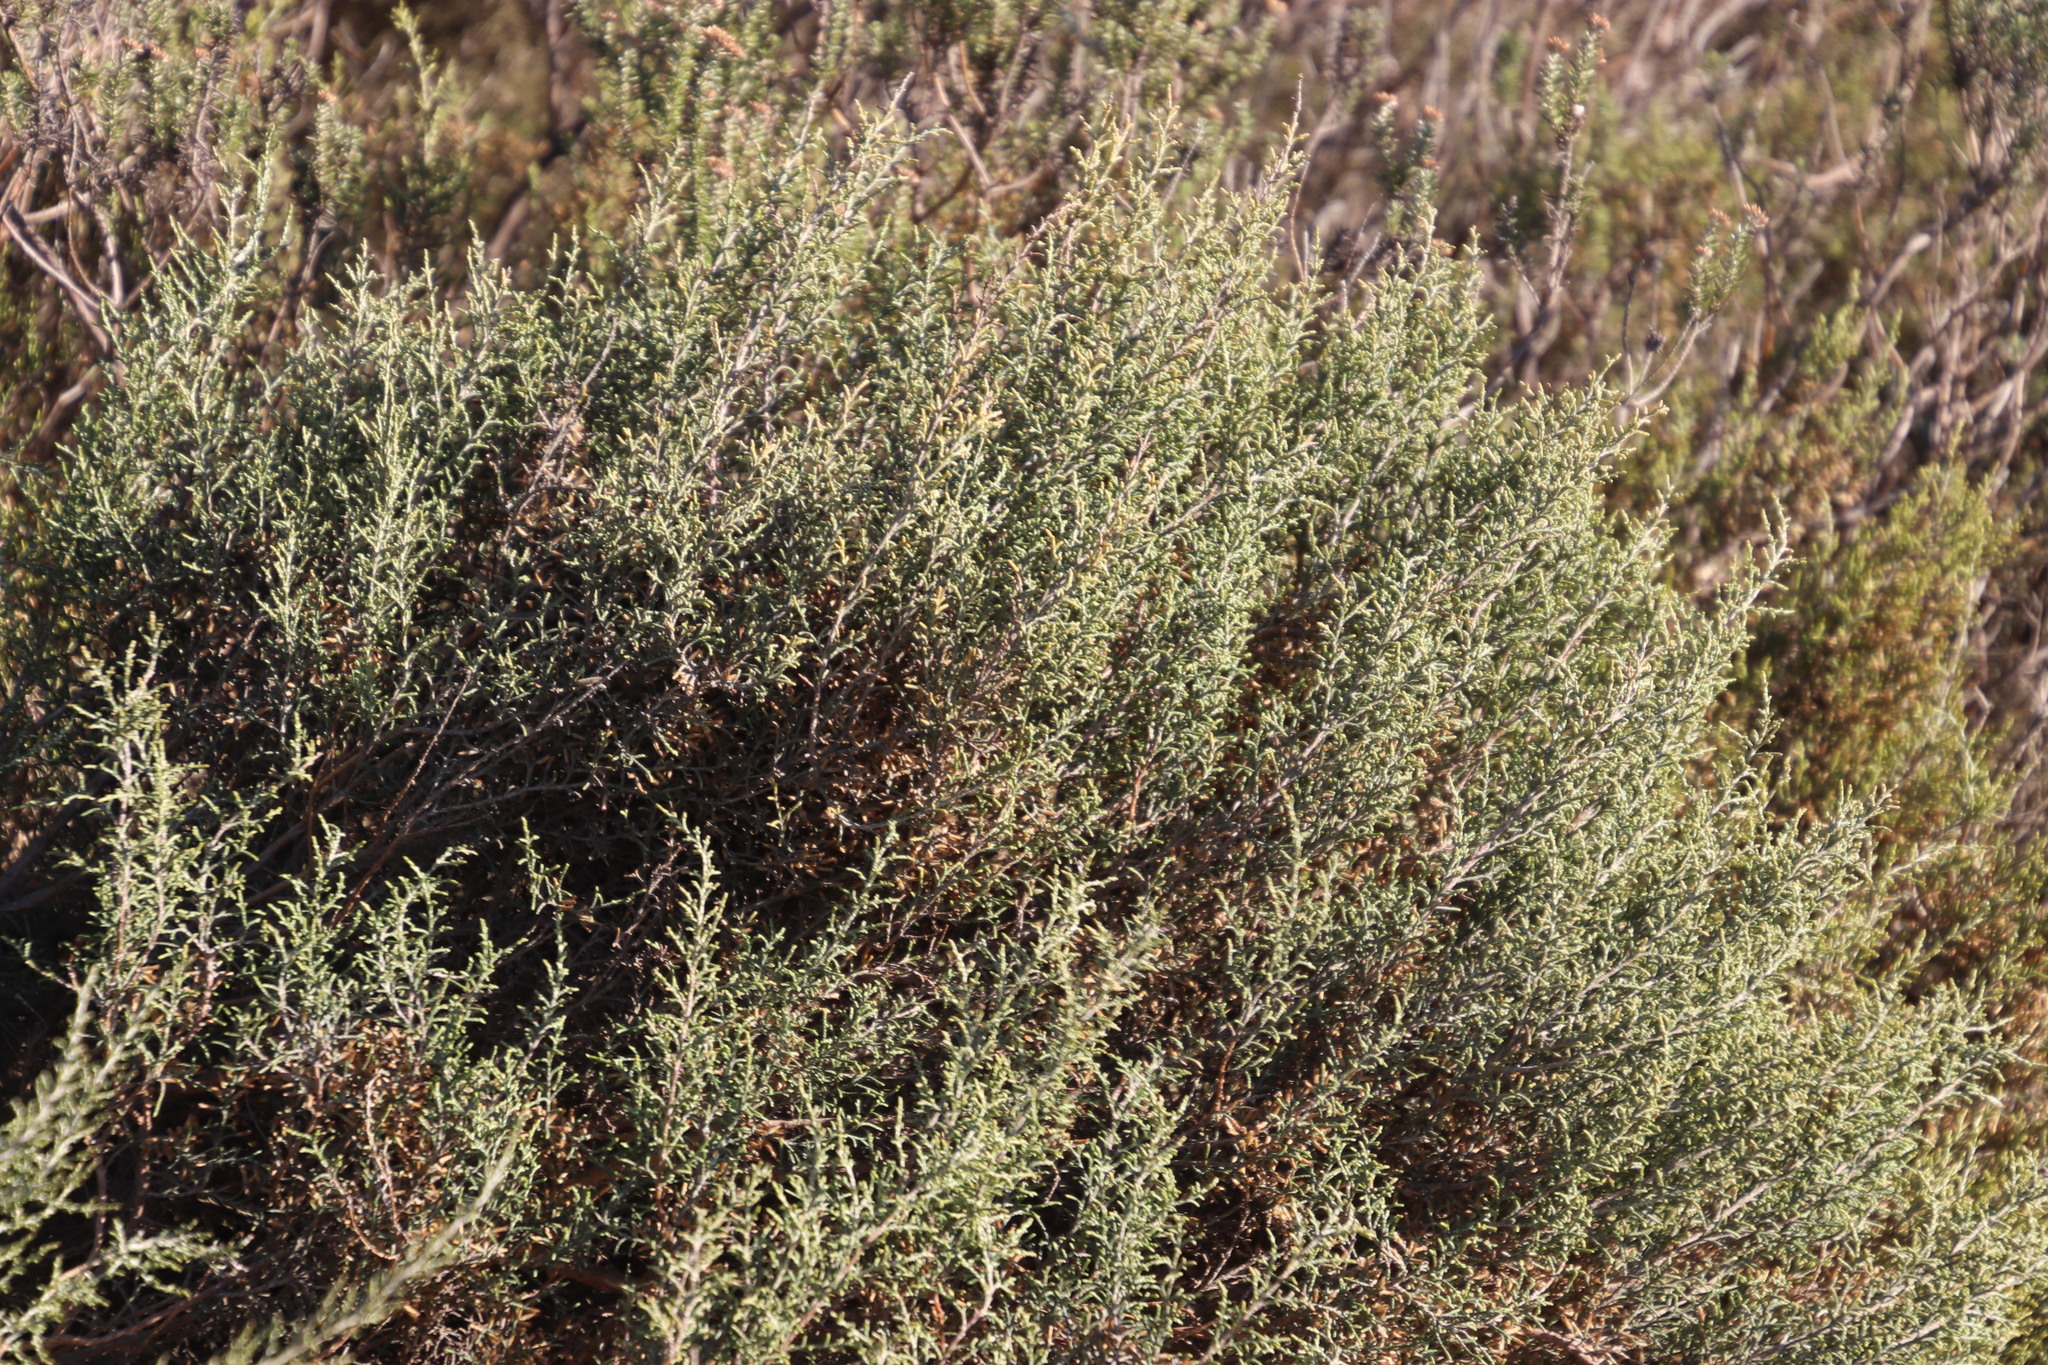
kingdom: Plantae
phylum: Tracheophyta
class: Magnoliopsida
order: Asterales
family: Asteraceae
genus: Dicerothamnus
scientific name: Dicerothamnus rhinocerotis
